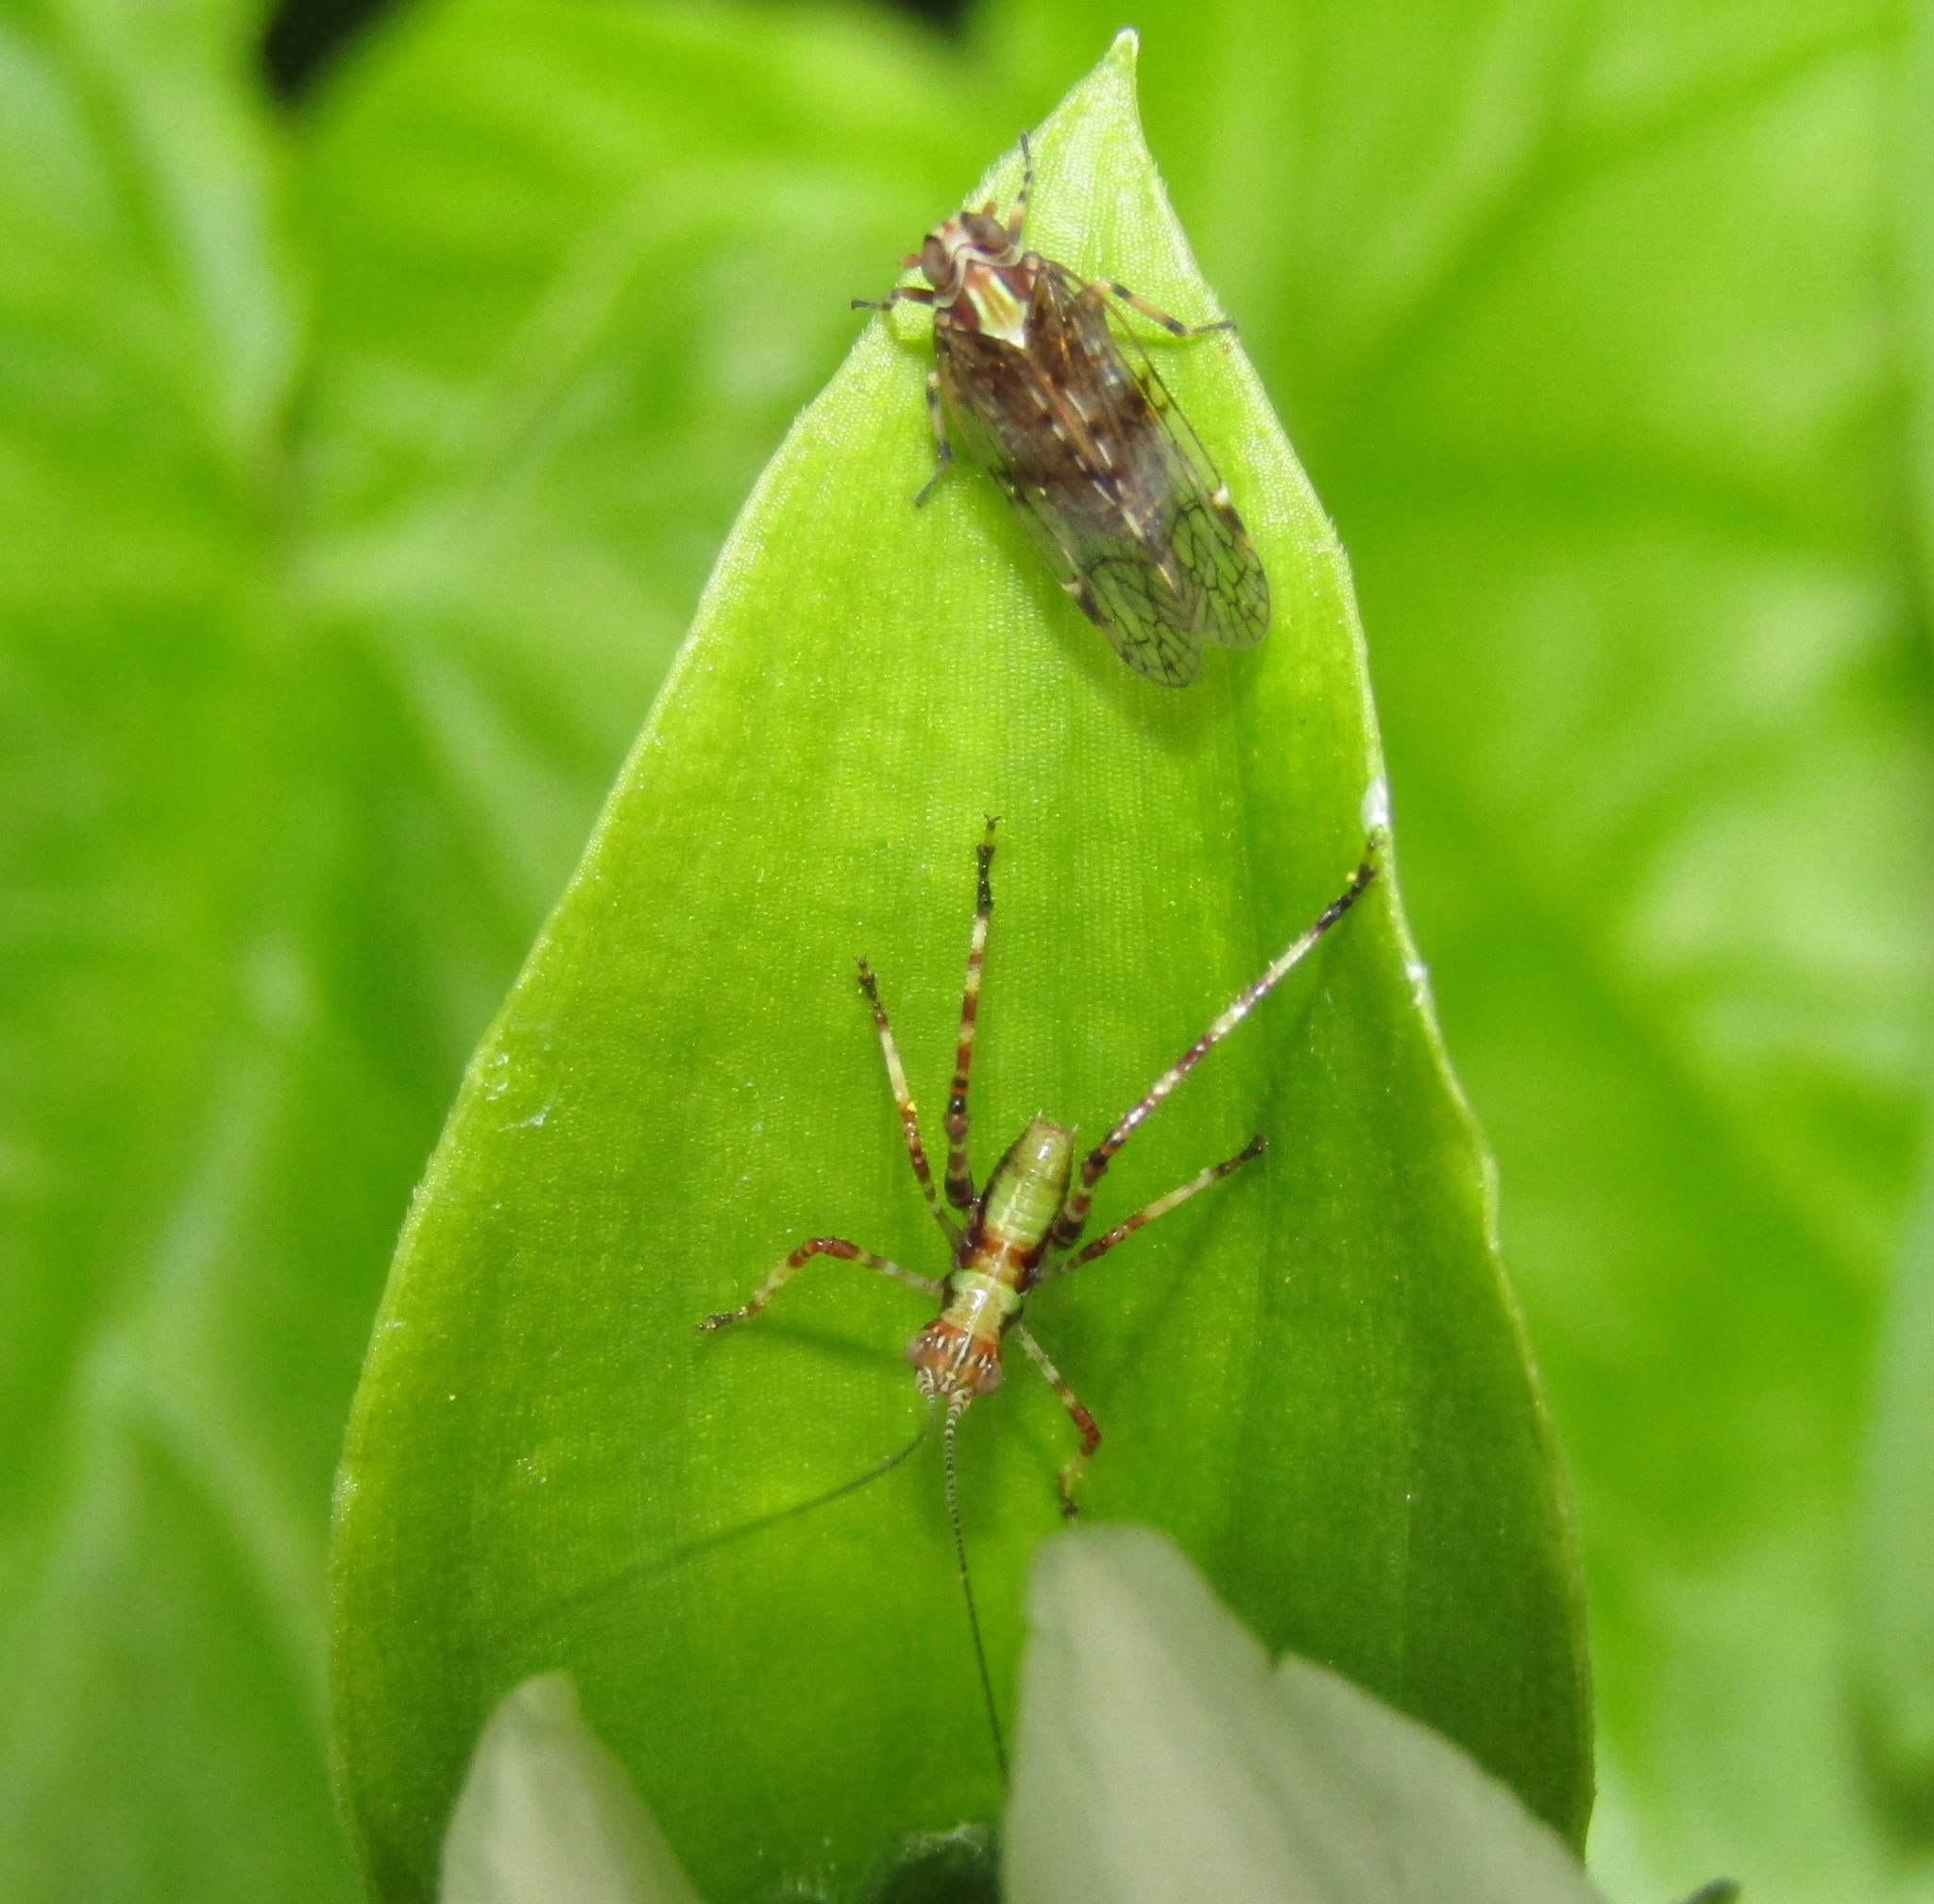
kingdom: Animalia
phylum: Arthropoda
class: Insecta
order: Hemiptera
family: Cixiidae
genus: Koroana
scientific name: Koroana rufifrons
